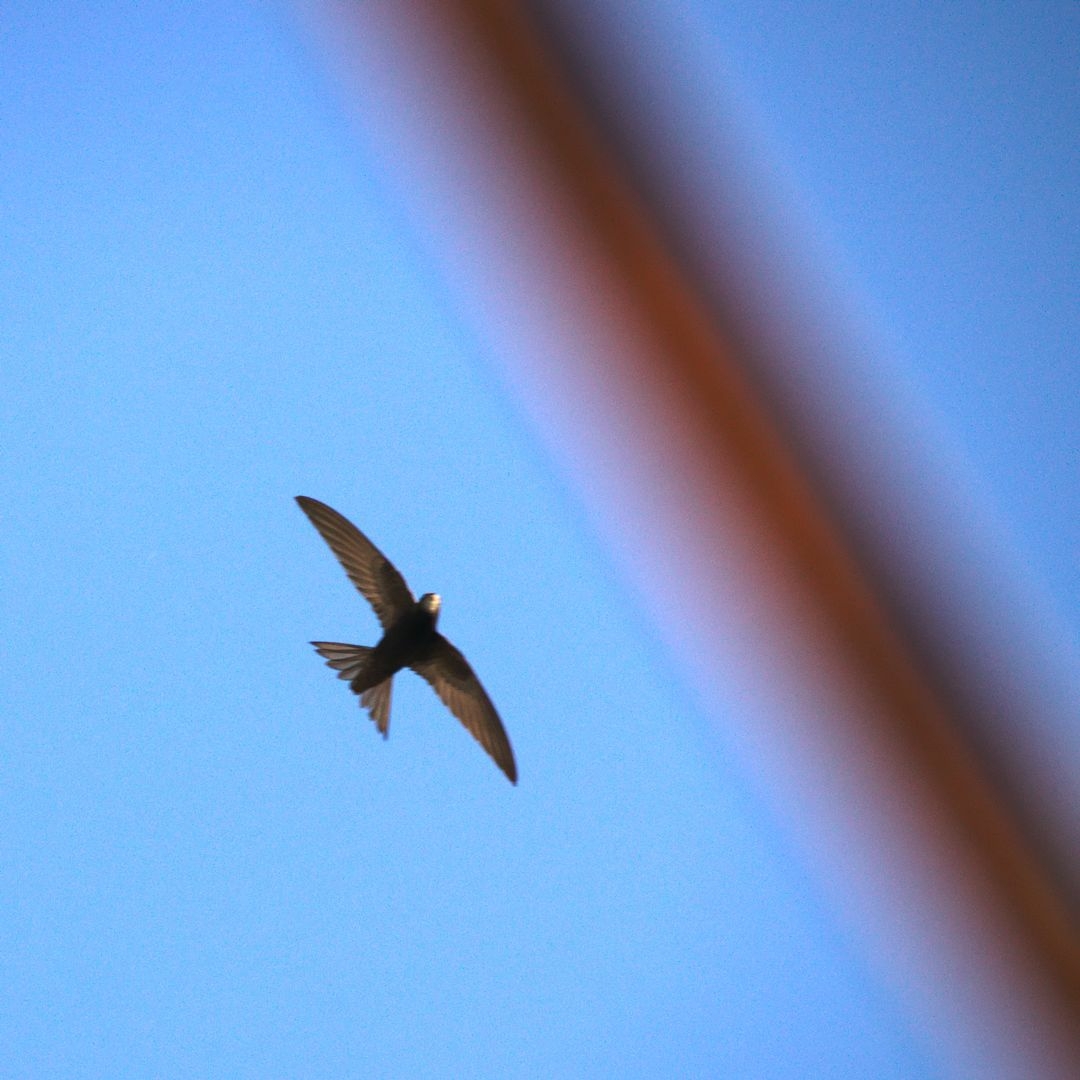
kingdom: Animalia
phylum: Chordata
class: Aves
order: Apodiformes
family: Apodidae
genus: Apus
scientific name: Apus apus
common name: Common swift
